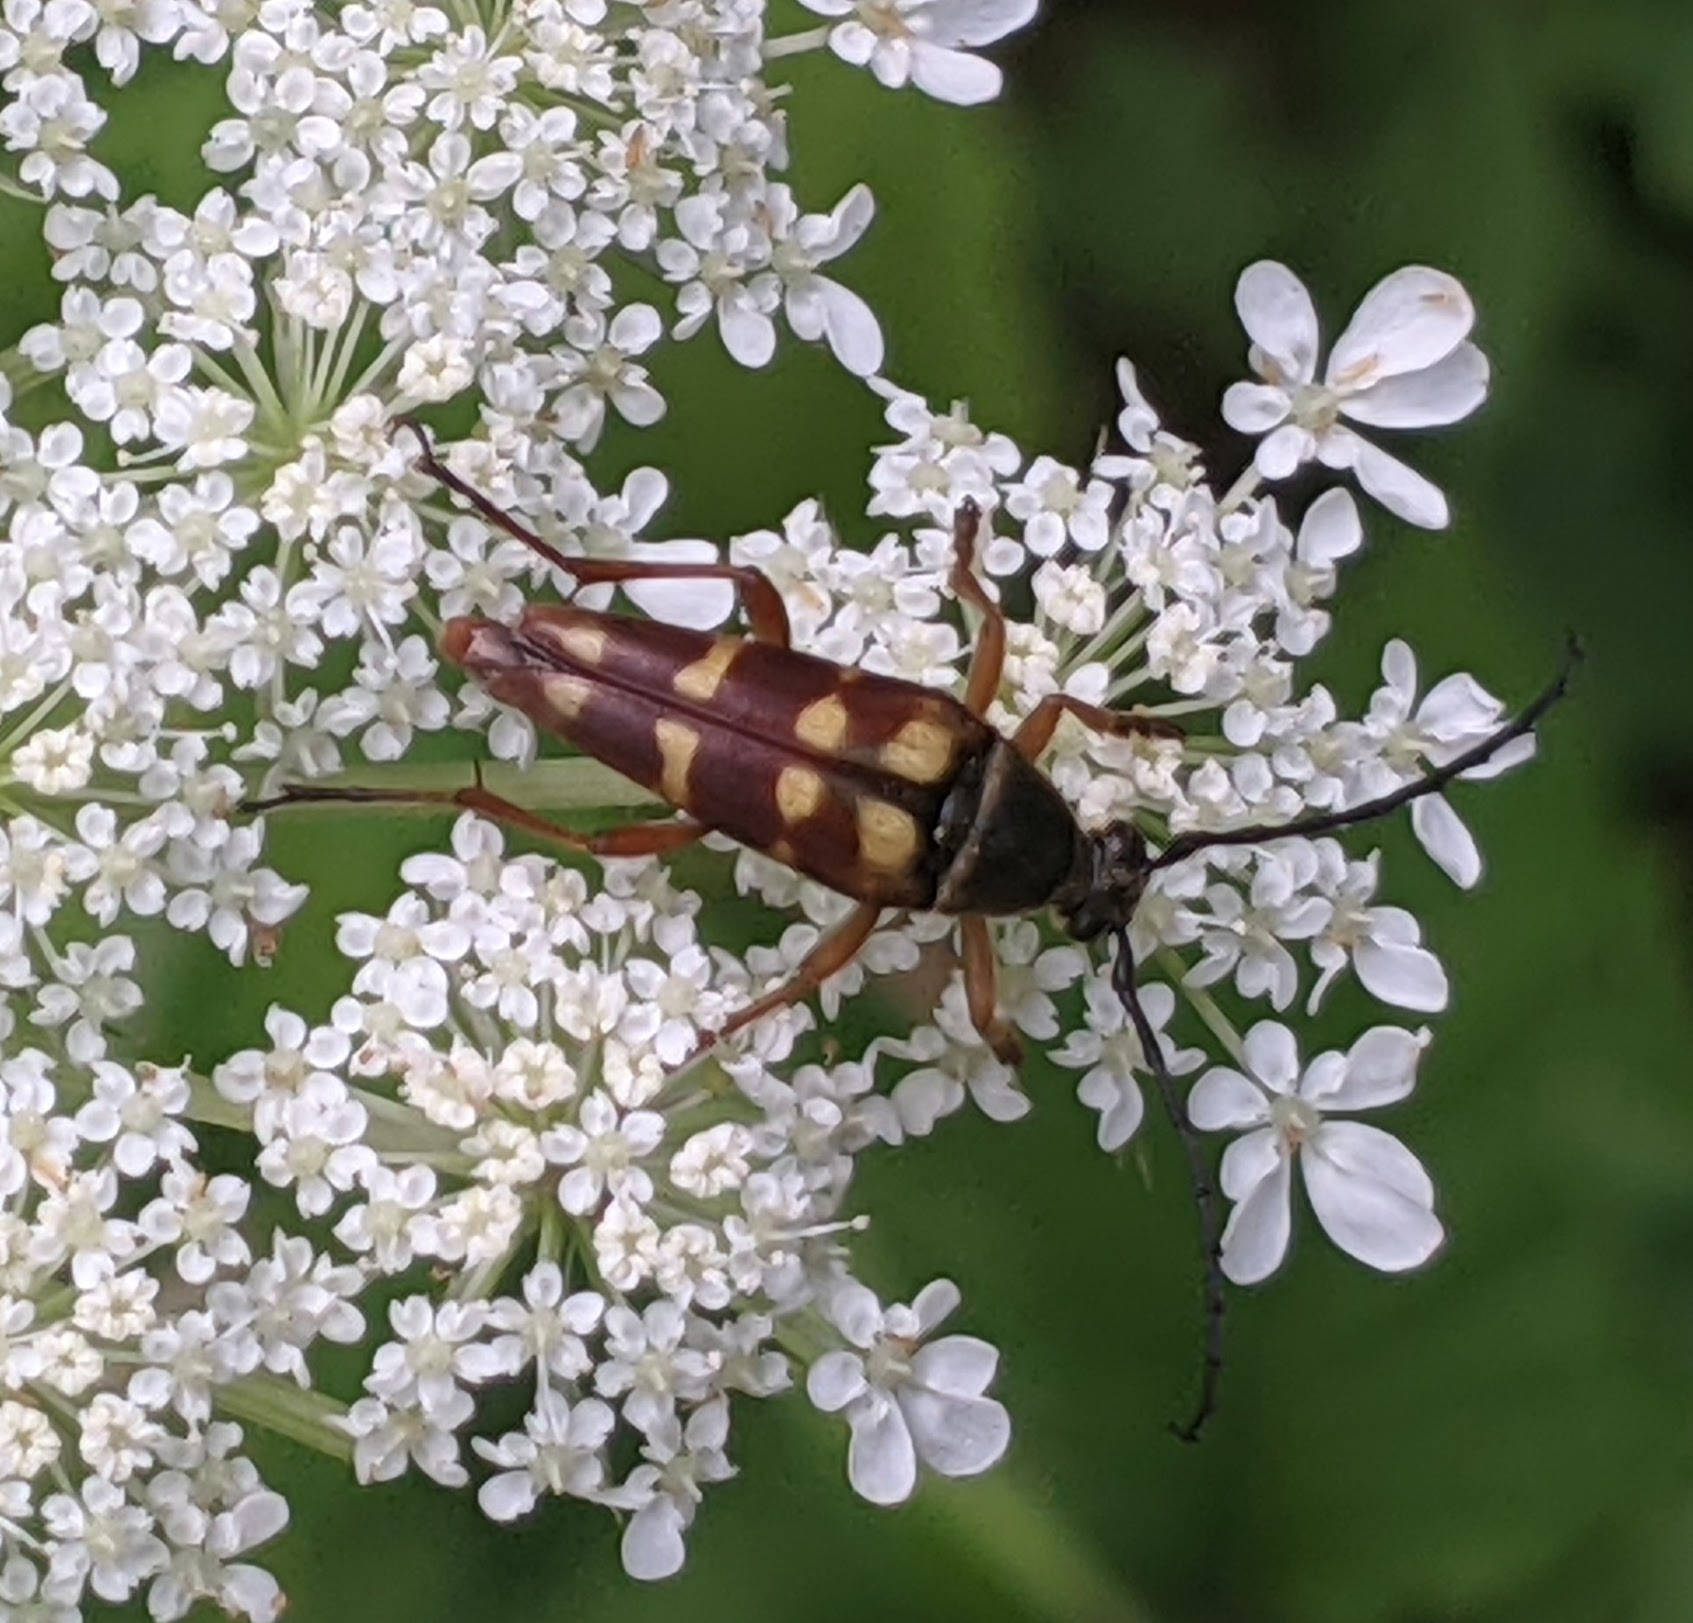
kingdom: Animalia
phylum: Arthropoda
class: Insecta
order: Coleoptera
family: Cerambycidae
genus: Typocerus
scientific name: Typocerus velutinus
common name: Banded longhorn beetle
